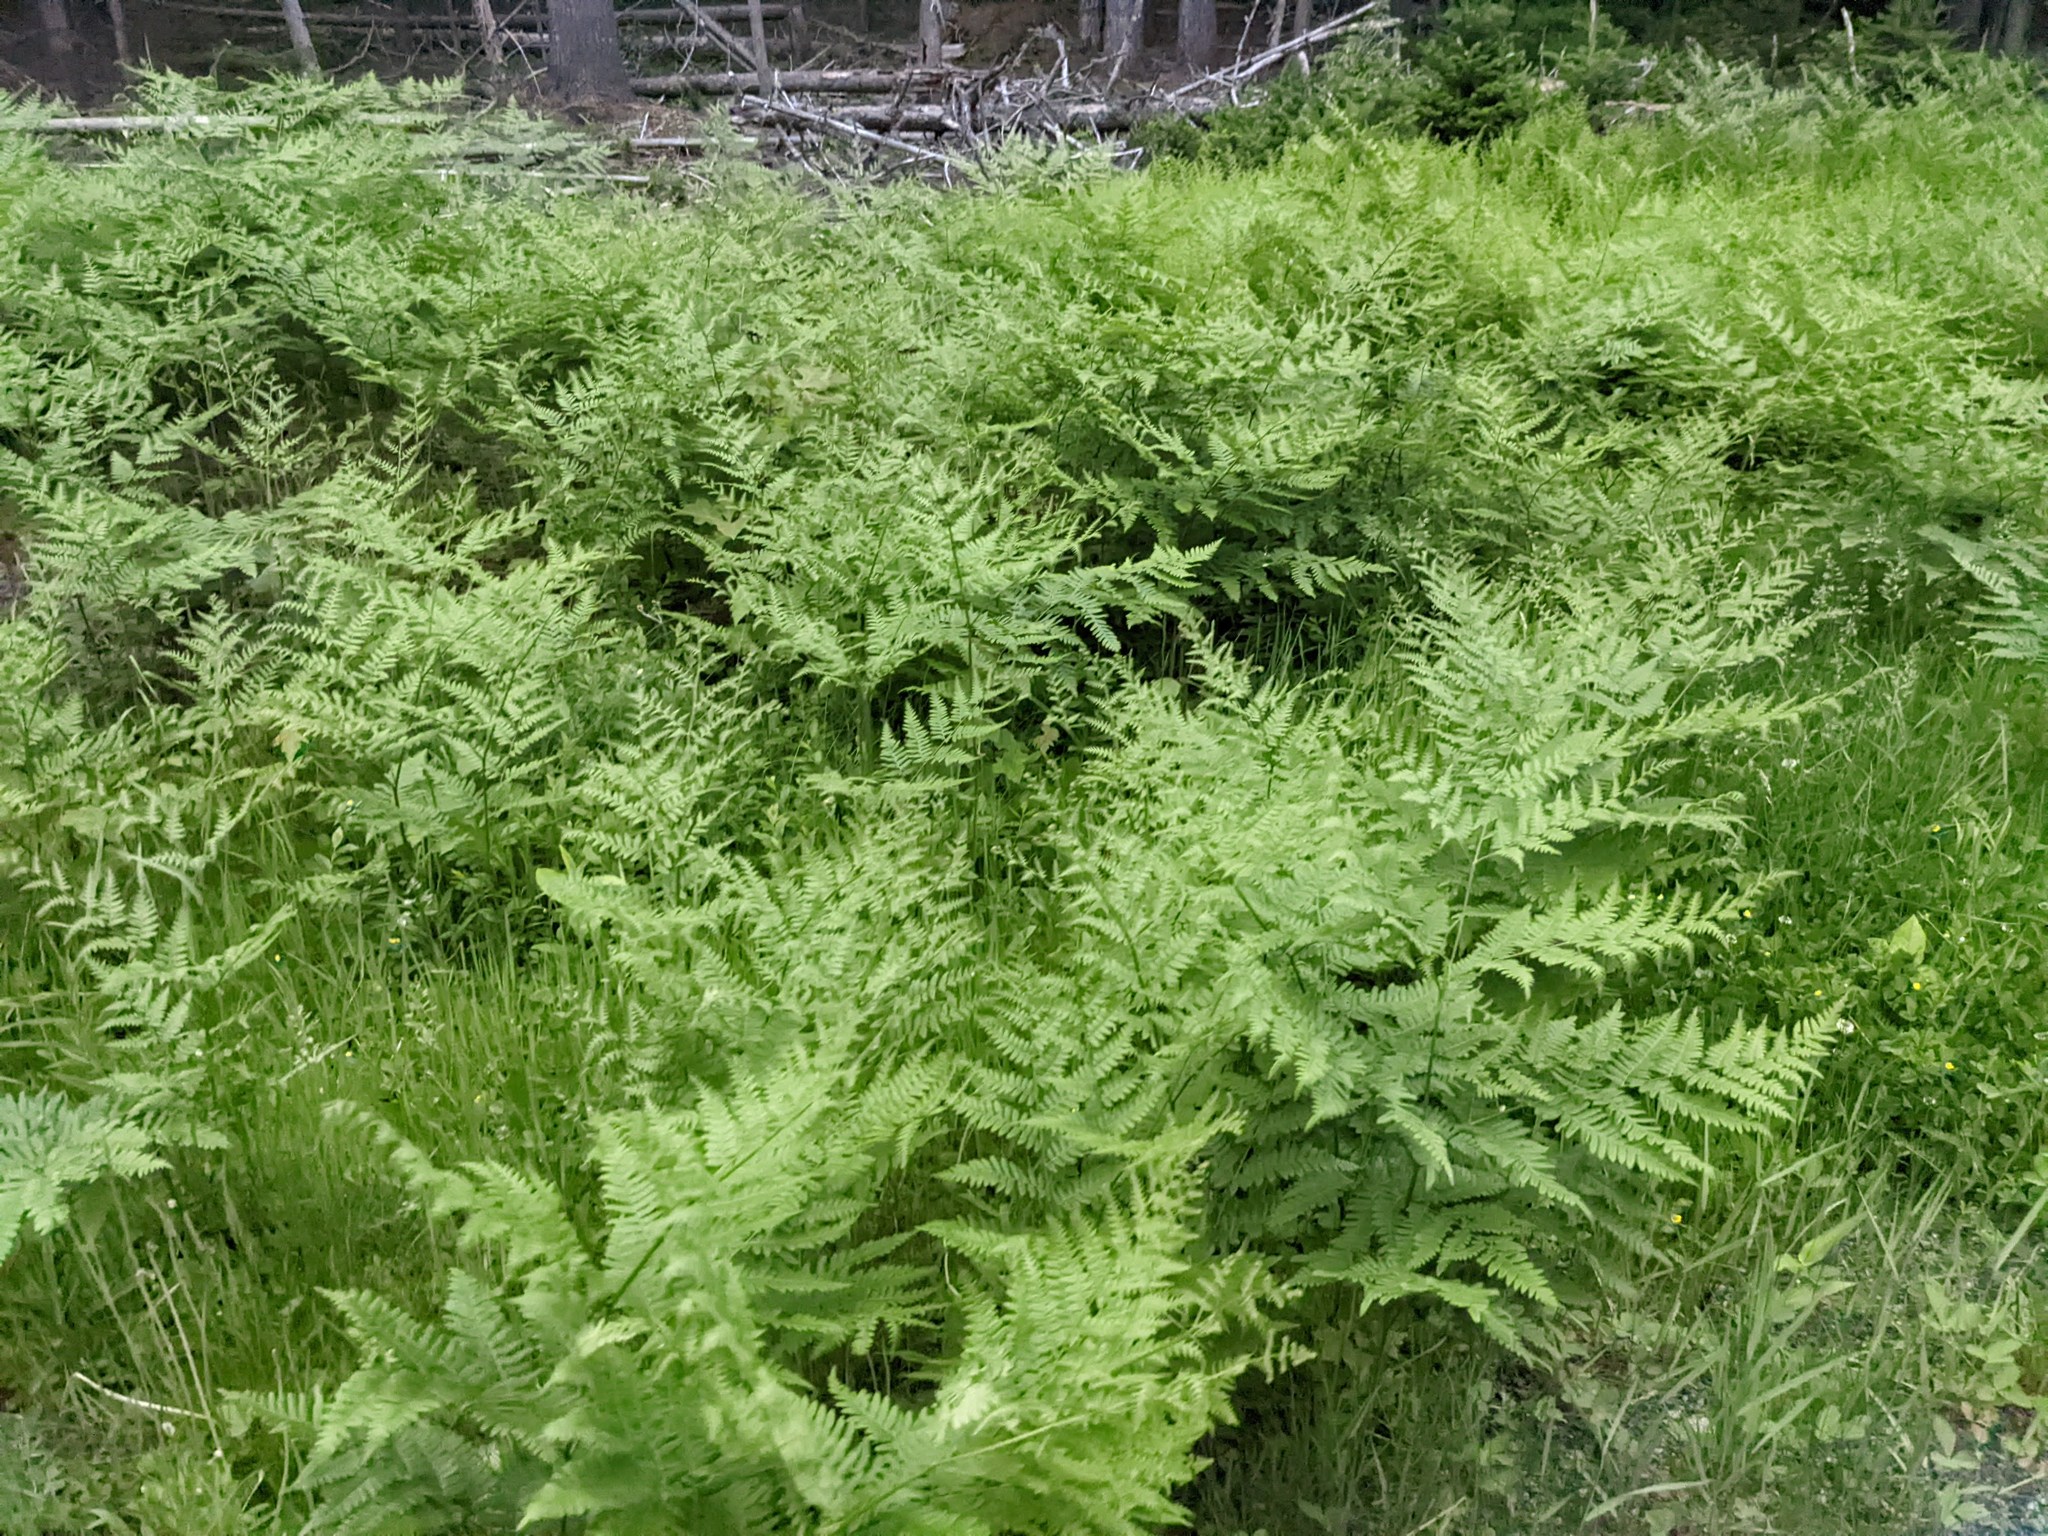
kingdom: Plantae
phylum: Tracheophyta
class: Polypodiopsida
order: Polypodiales
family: Dennstaedtiaceae
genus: Pteridium
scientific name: Pteridium aquilinum
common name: Bracken
